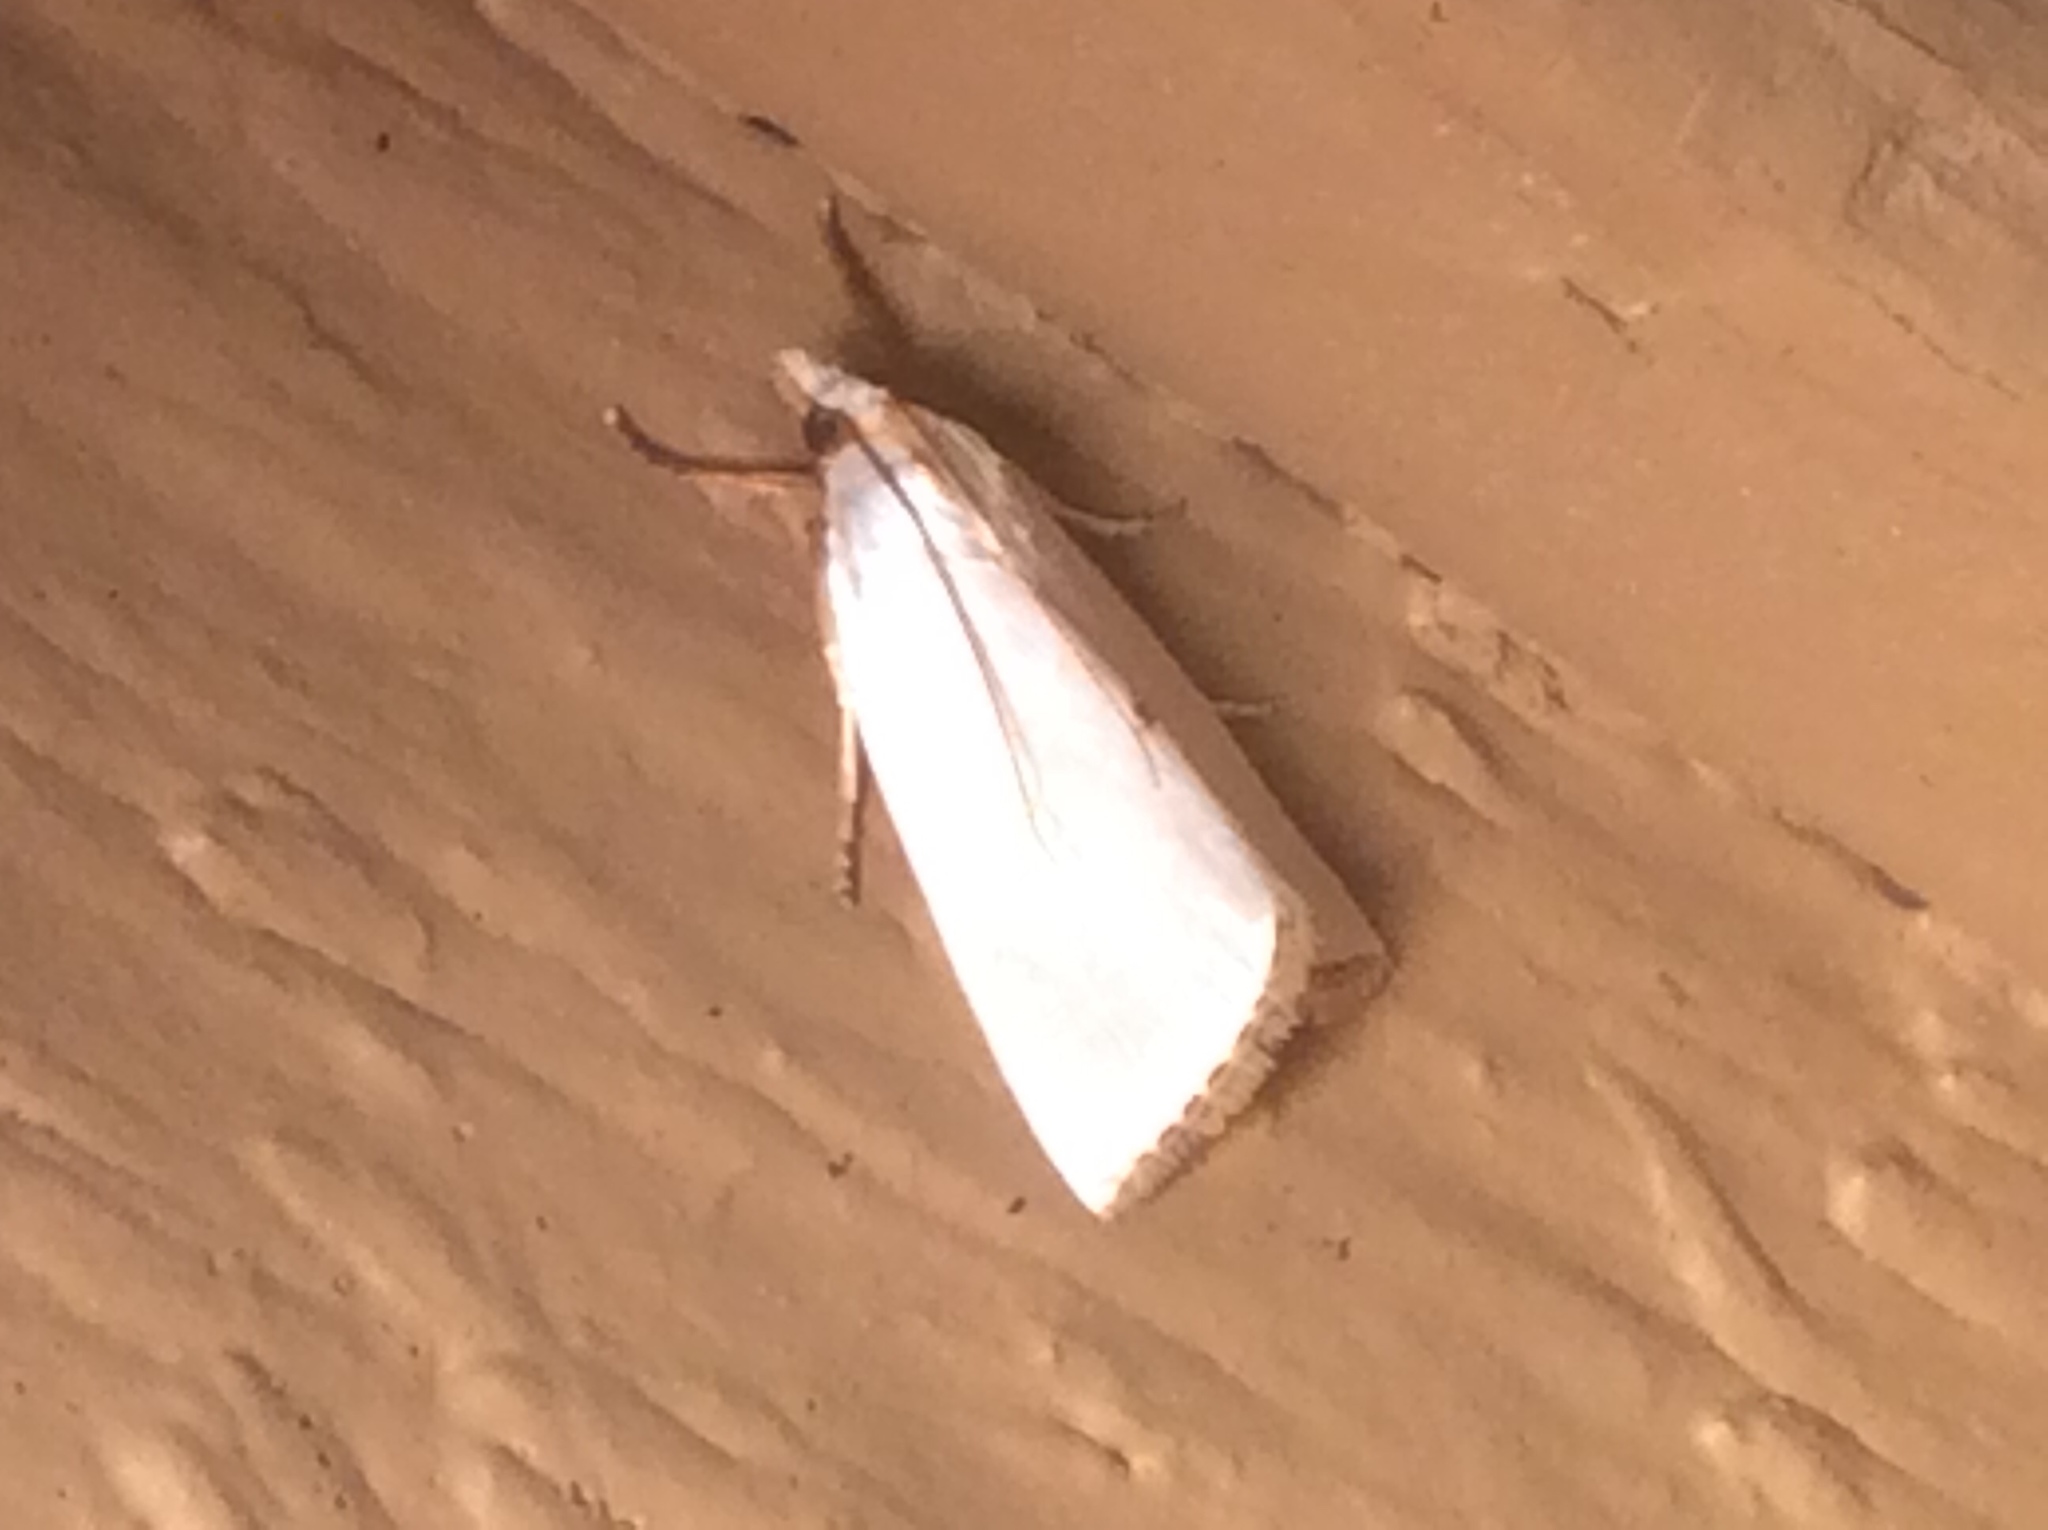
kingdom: Animalia
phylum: Arthropoda
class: Insecta
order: Lepidoptera
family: Crambidae
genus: Argyria
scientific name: Argyria nivalis
